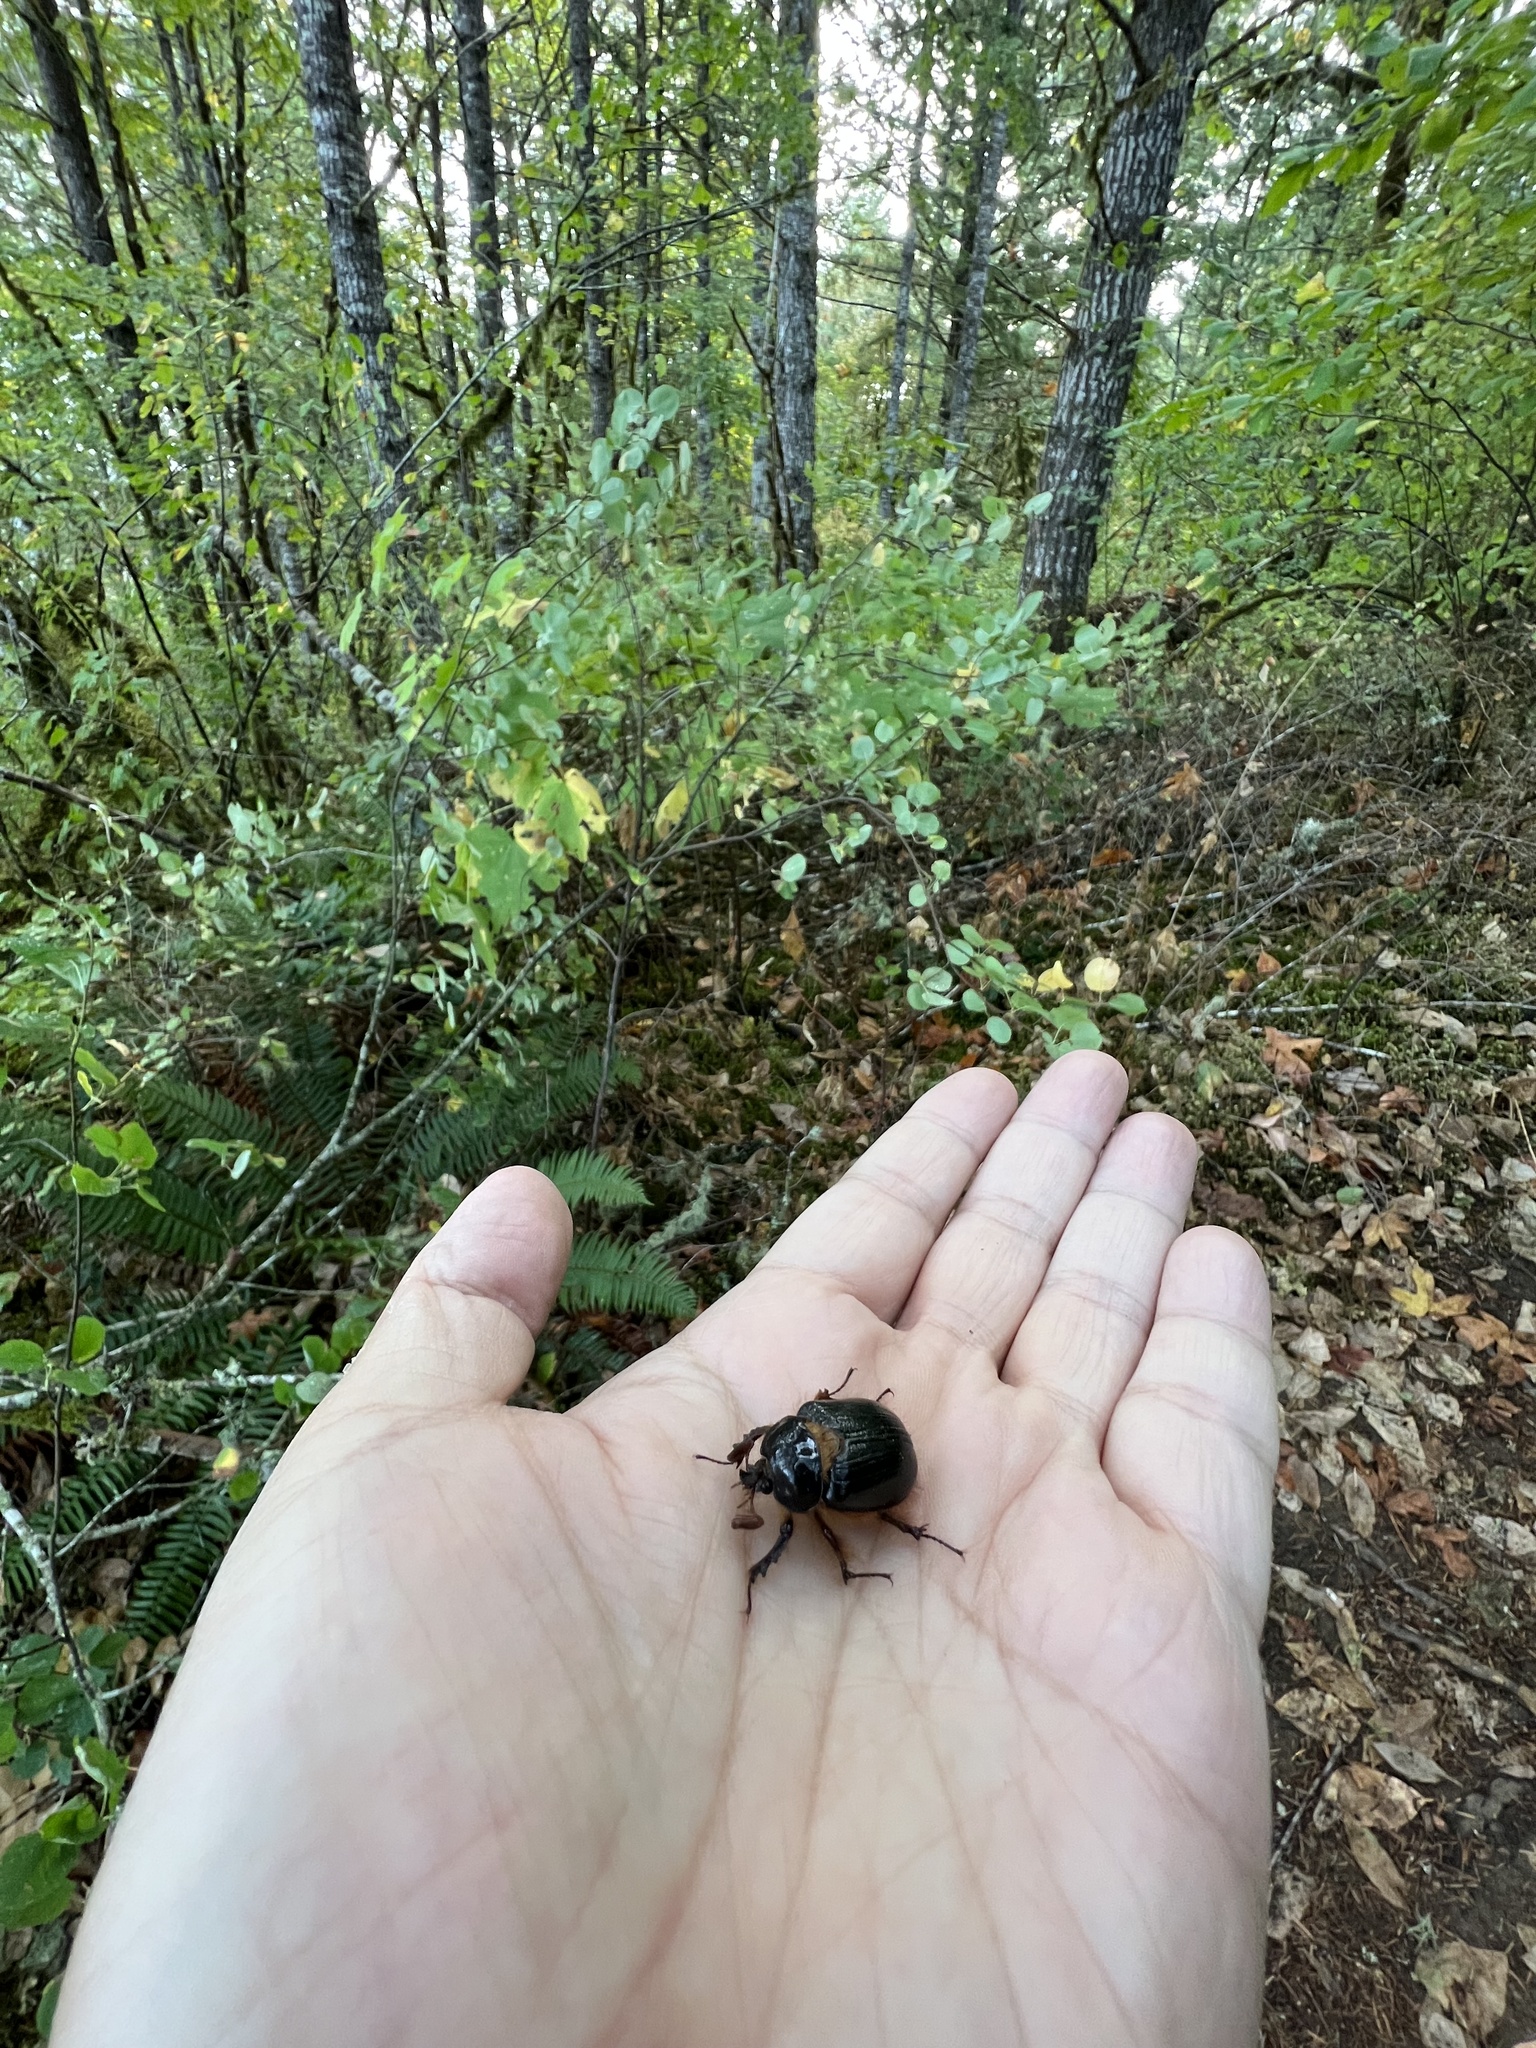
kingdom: Animalia
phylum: Arthropoda
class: Insecta
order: Coleoptera
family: Pleocomidae
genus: Pleocoma
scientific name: Pleocoma dubitabilis
